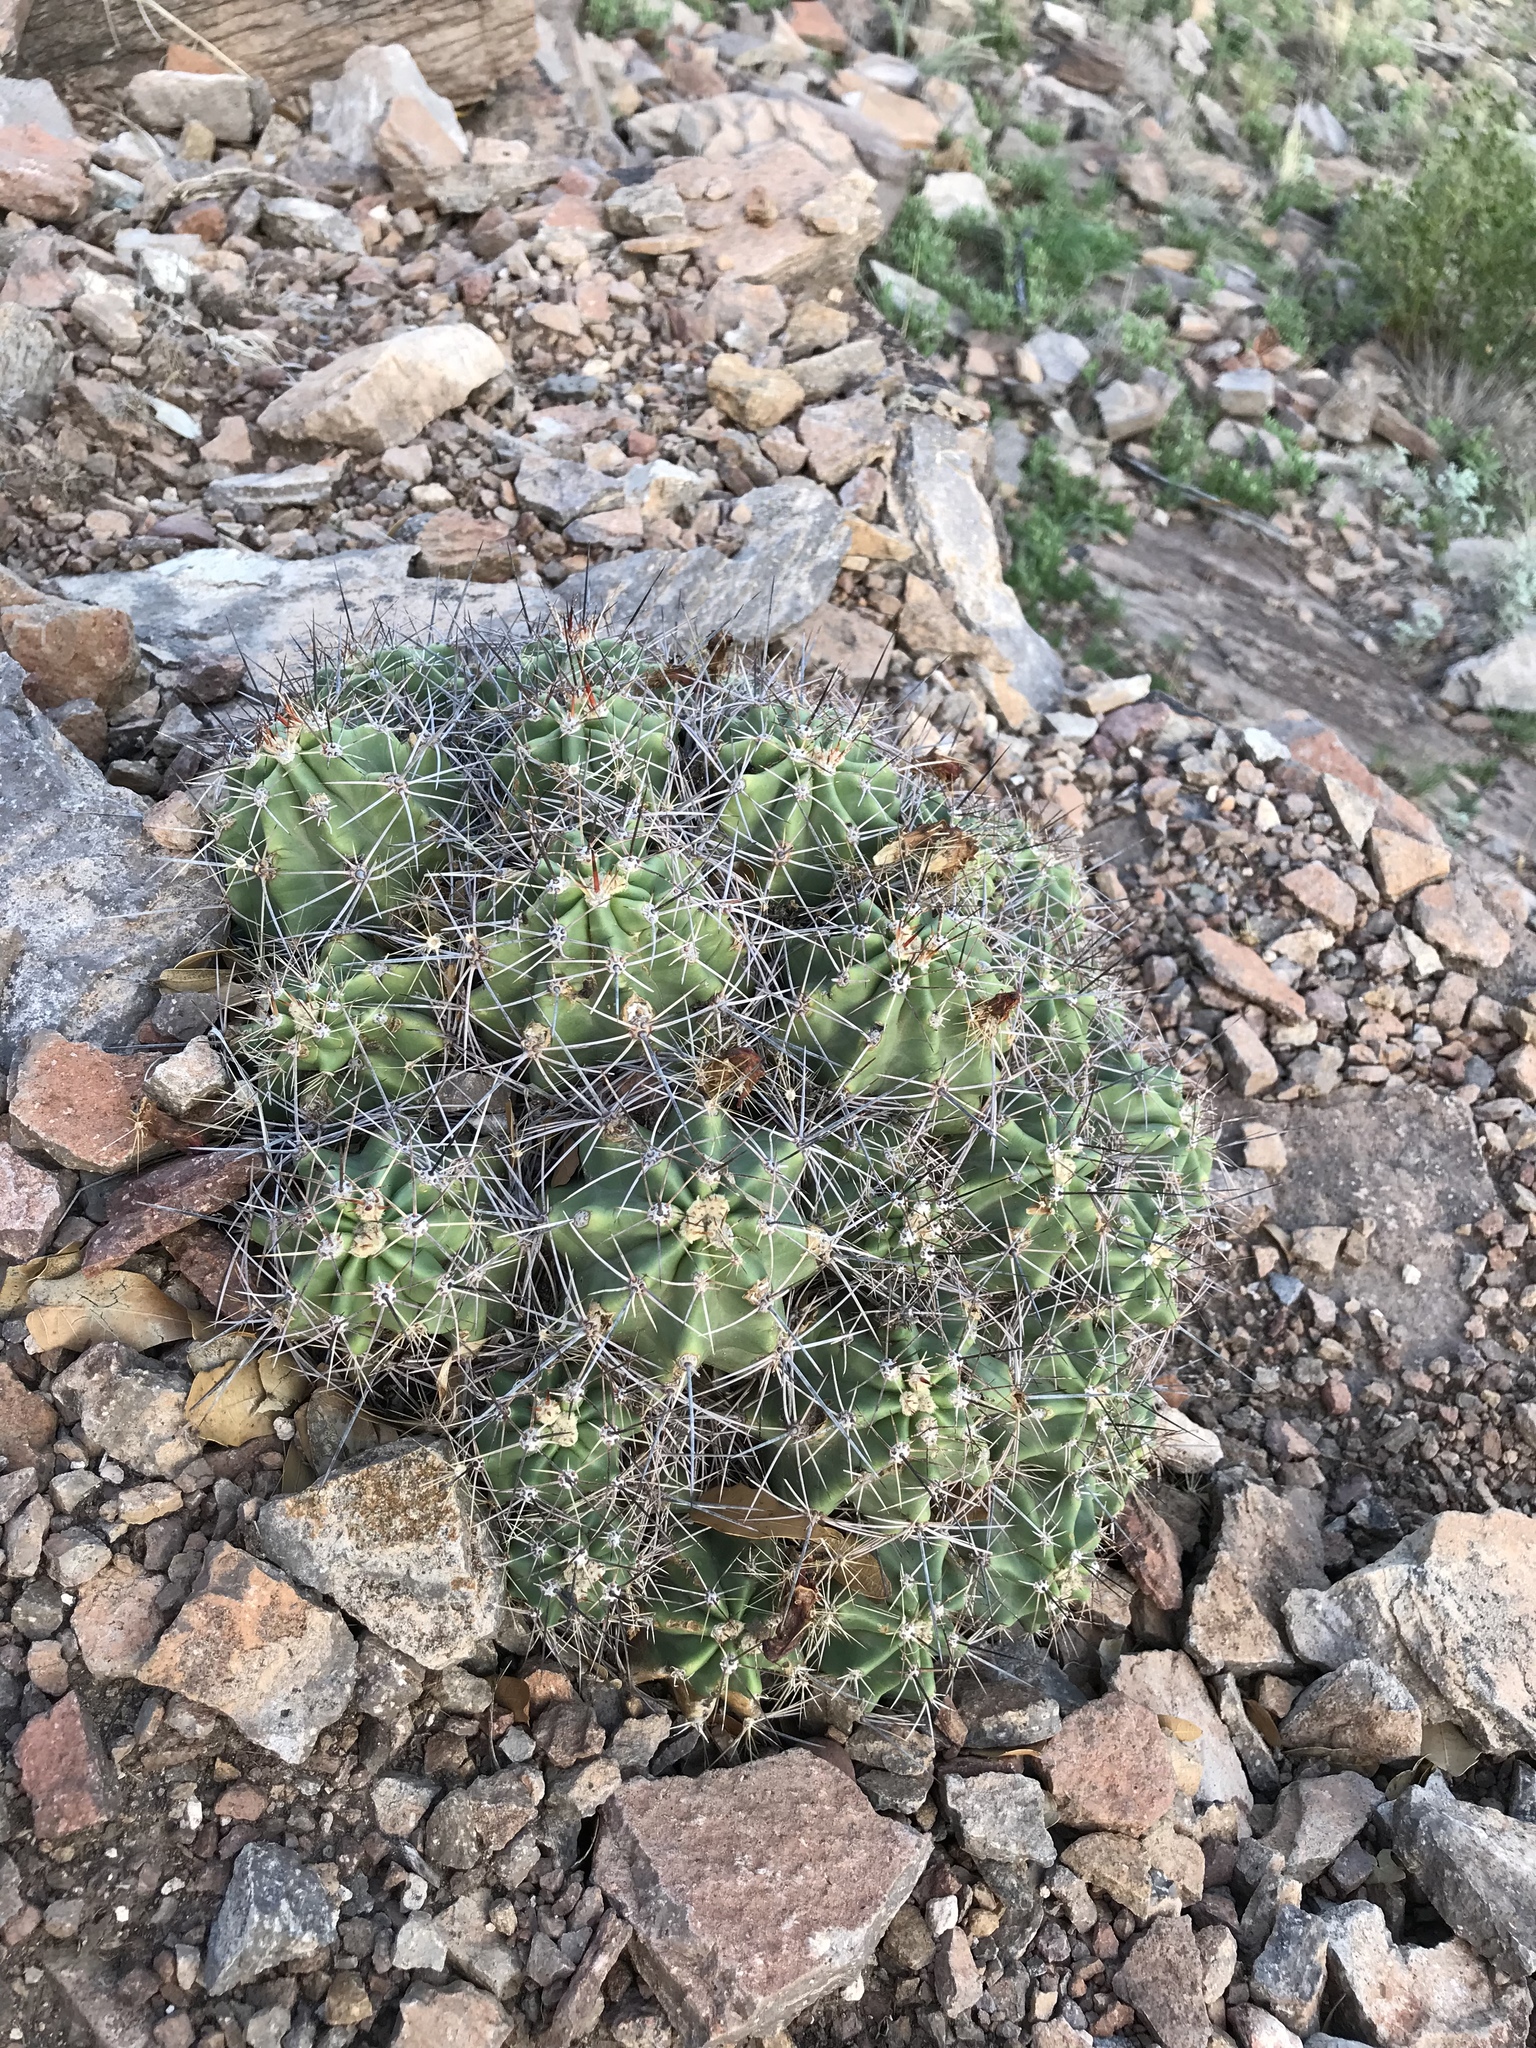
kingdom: Plantae
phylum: Tracheophyta
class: Magnoliopsida
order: Caryophyllales
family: Cactaceae
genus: Echinocereus
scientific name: Echinocereus coccineus
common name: Scarlet hedgehog cactus
